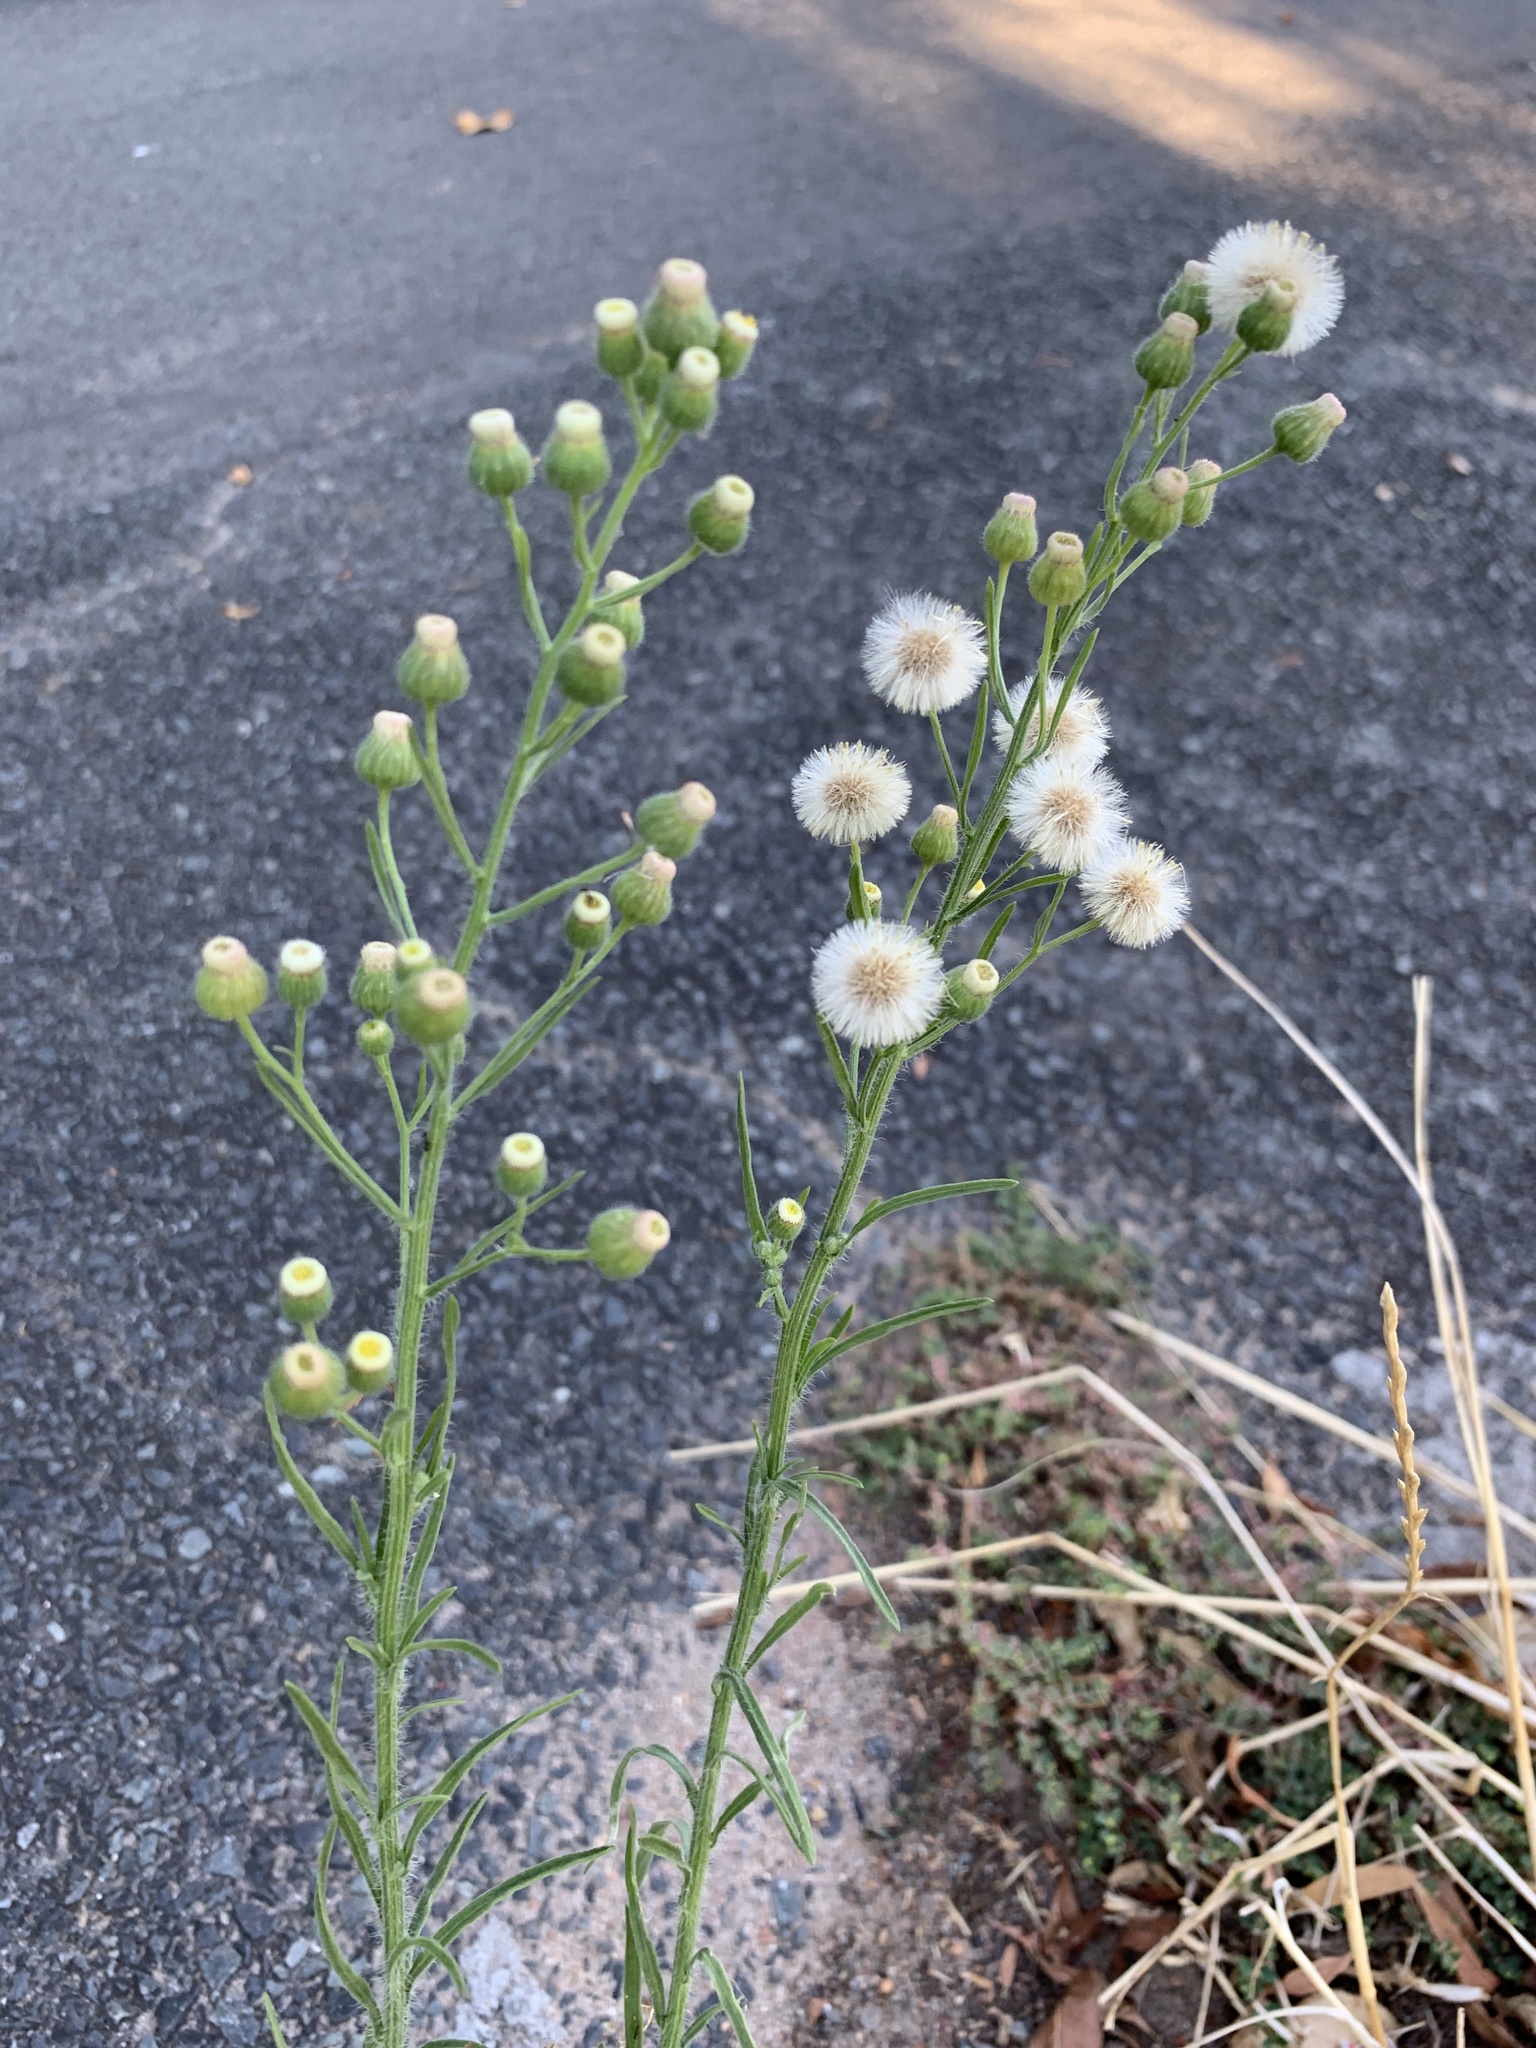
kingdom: Plantae
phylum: Tracheophyta
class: Magnoliopsida
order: Asterales
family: Asteraceae
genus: Erigeron
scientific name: Erigeron bonariensis
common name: Argentine fleabane
